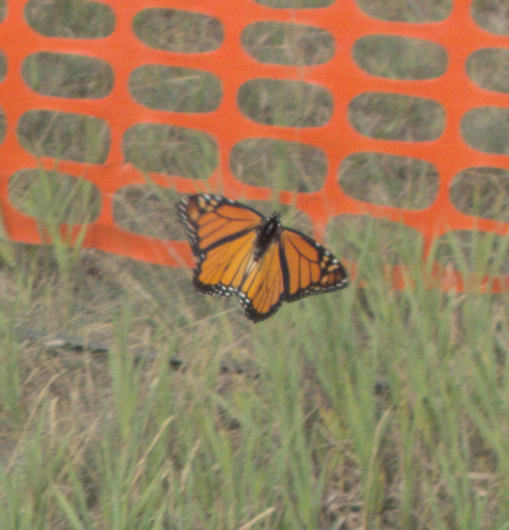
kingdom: Animalia
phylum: Arthropoda
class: Insecta
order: Lepidoptera
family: Nymphalidae
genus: Danaus
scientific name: Danaus plexippus
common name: Monarch
